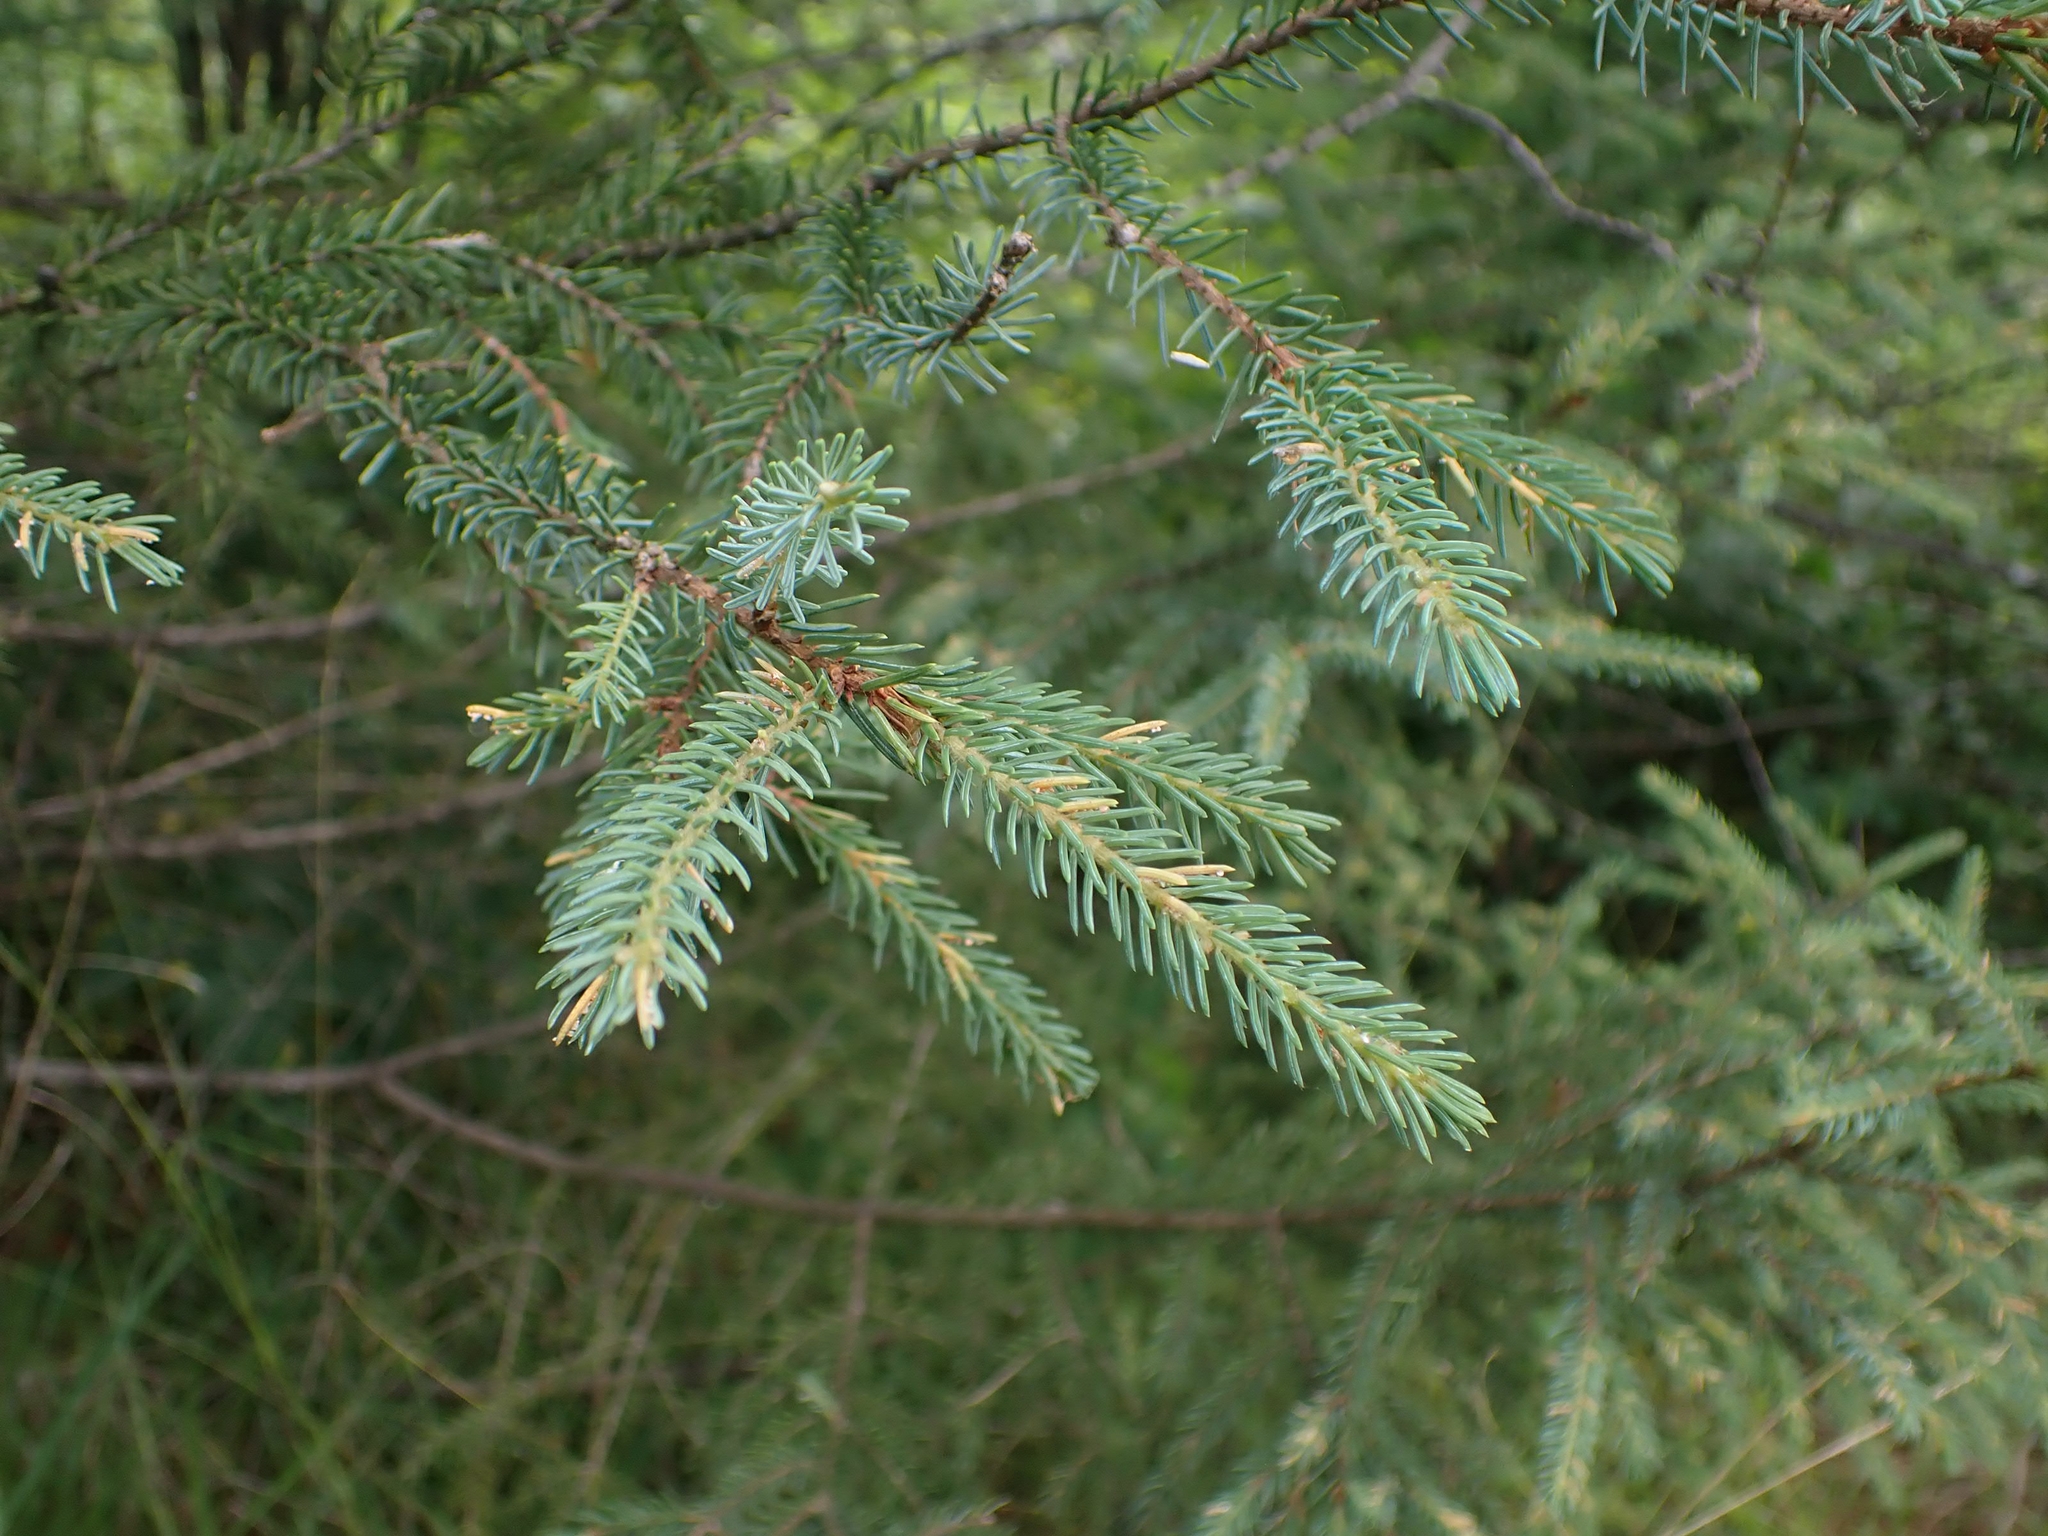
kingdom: Plantae
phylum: Tracheophyta
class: Pinopsida
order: Pinales
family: Pinaceae
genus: Picea
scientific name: Picea mariana
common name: Black spruce
